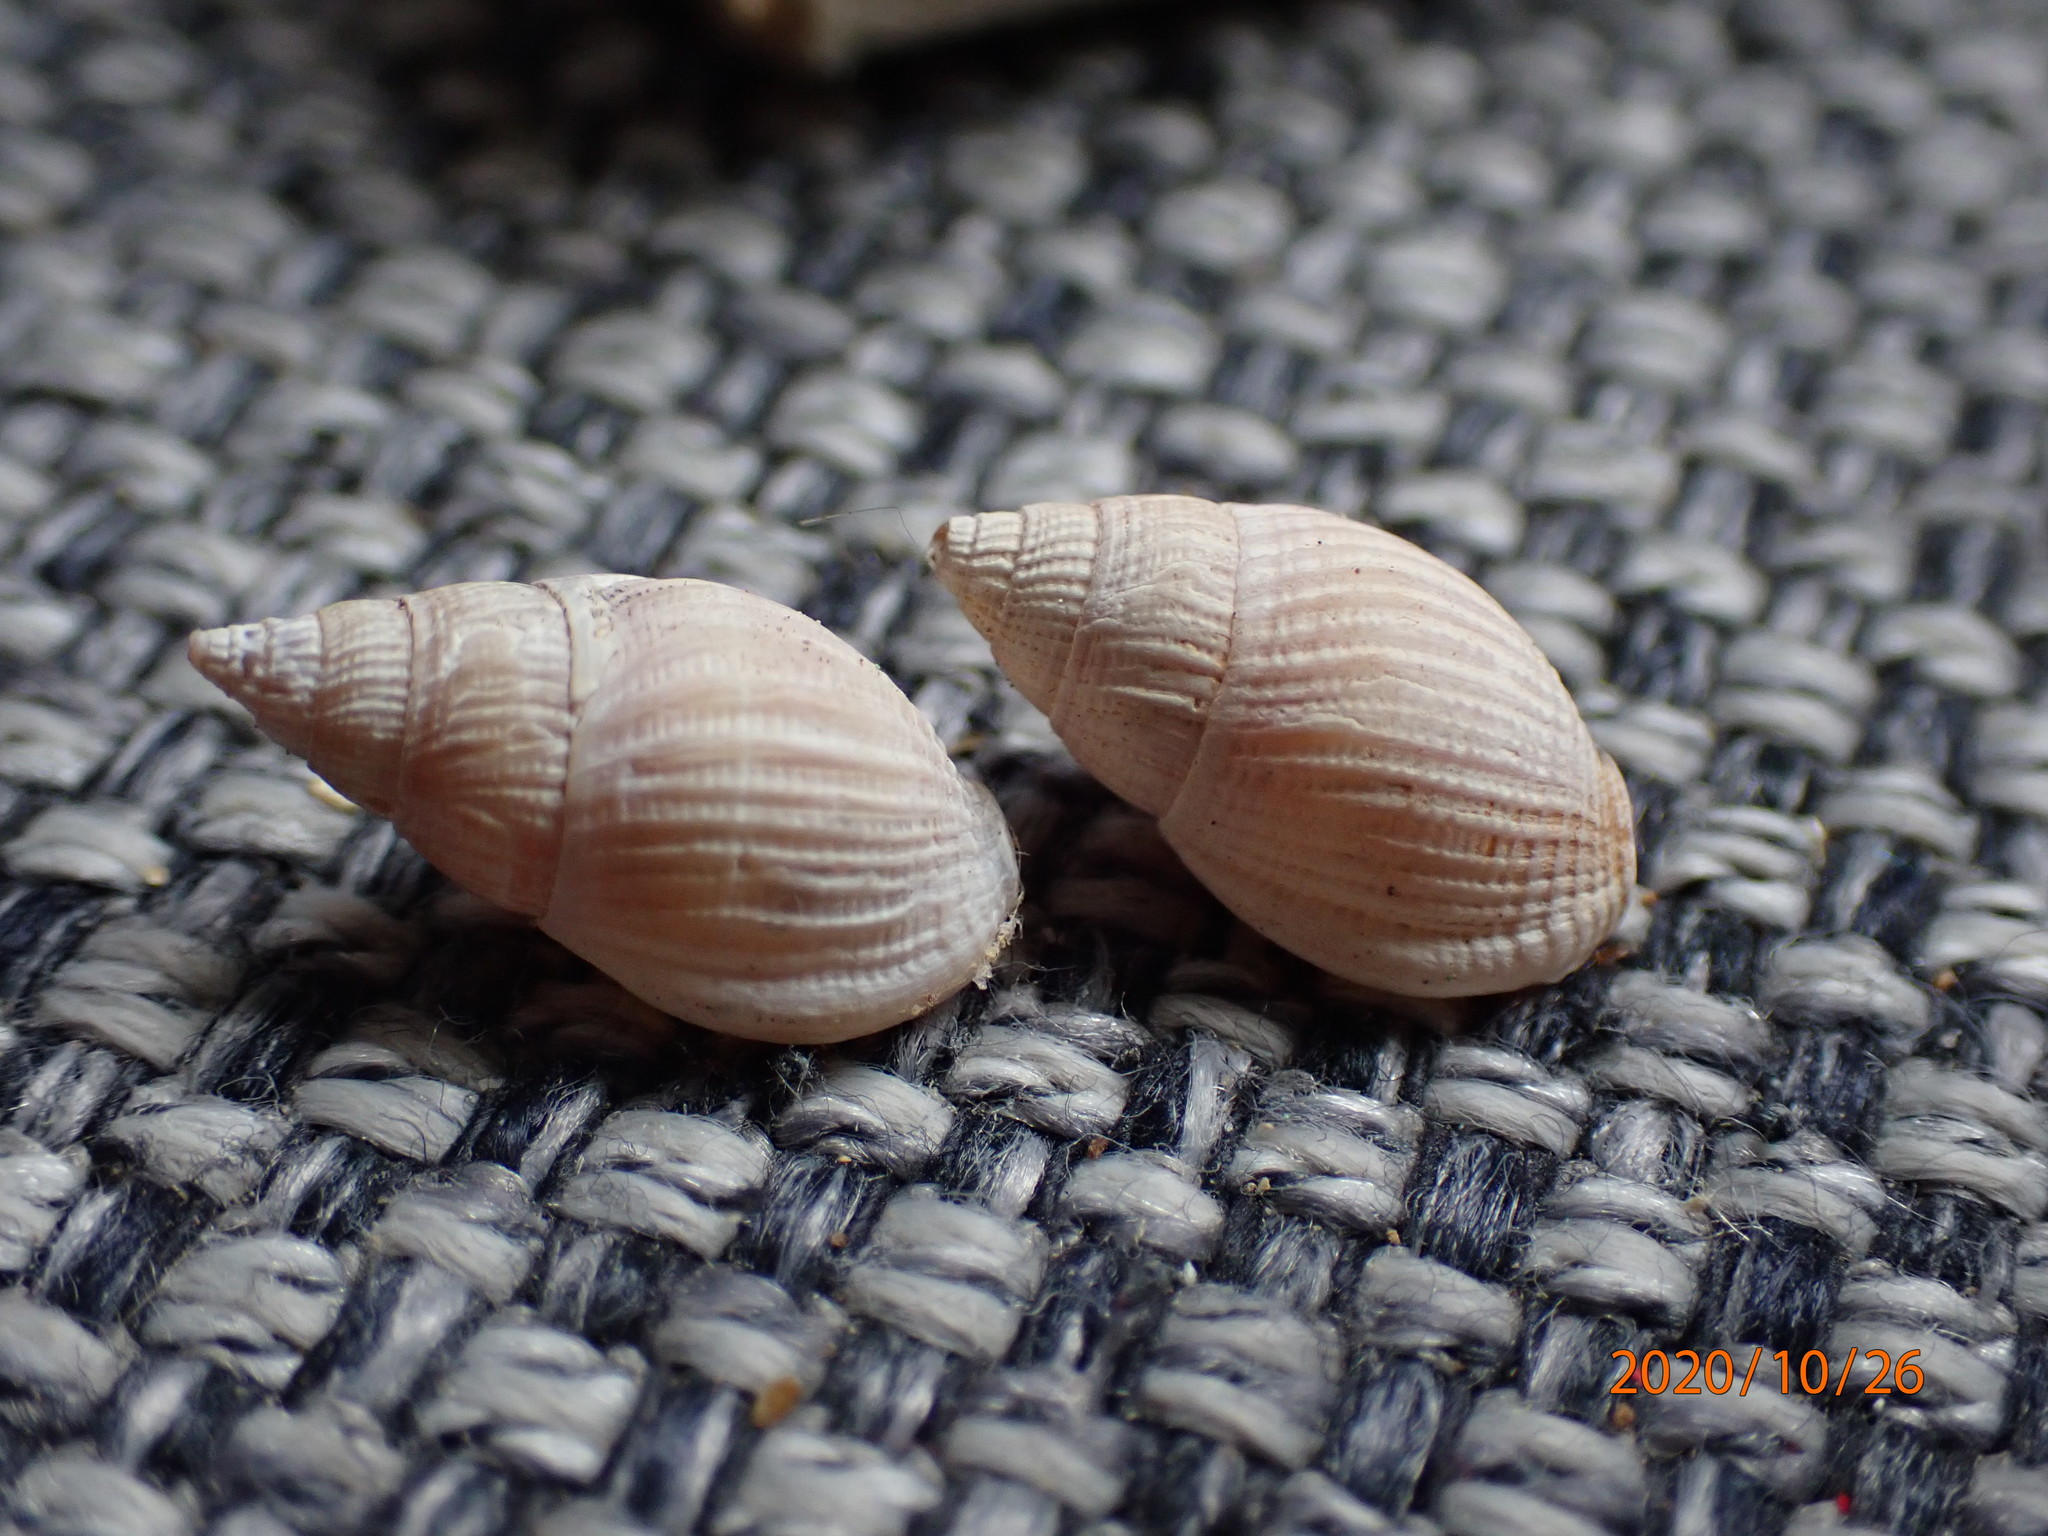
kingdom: Animalia
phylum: Mollusca
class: Gastropoda
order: Neogastropoda
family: Nassariidae
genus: Nassarius
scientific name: Nassarius foveolatus
